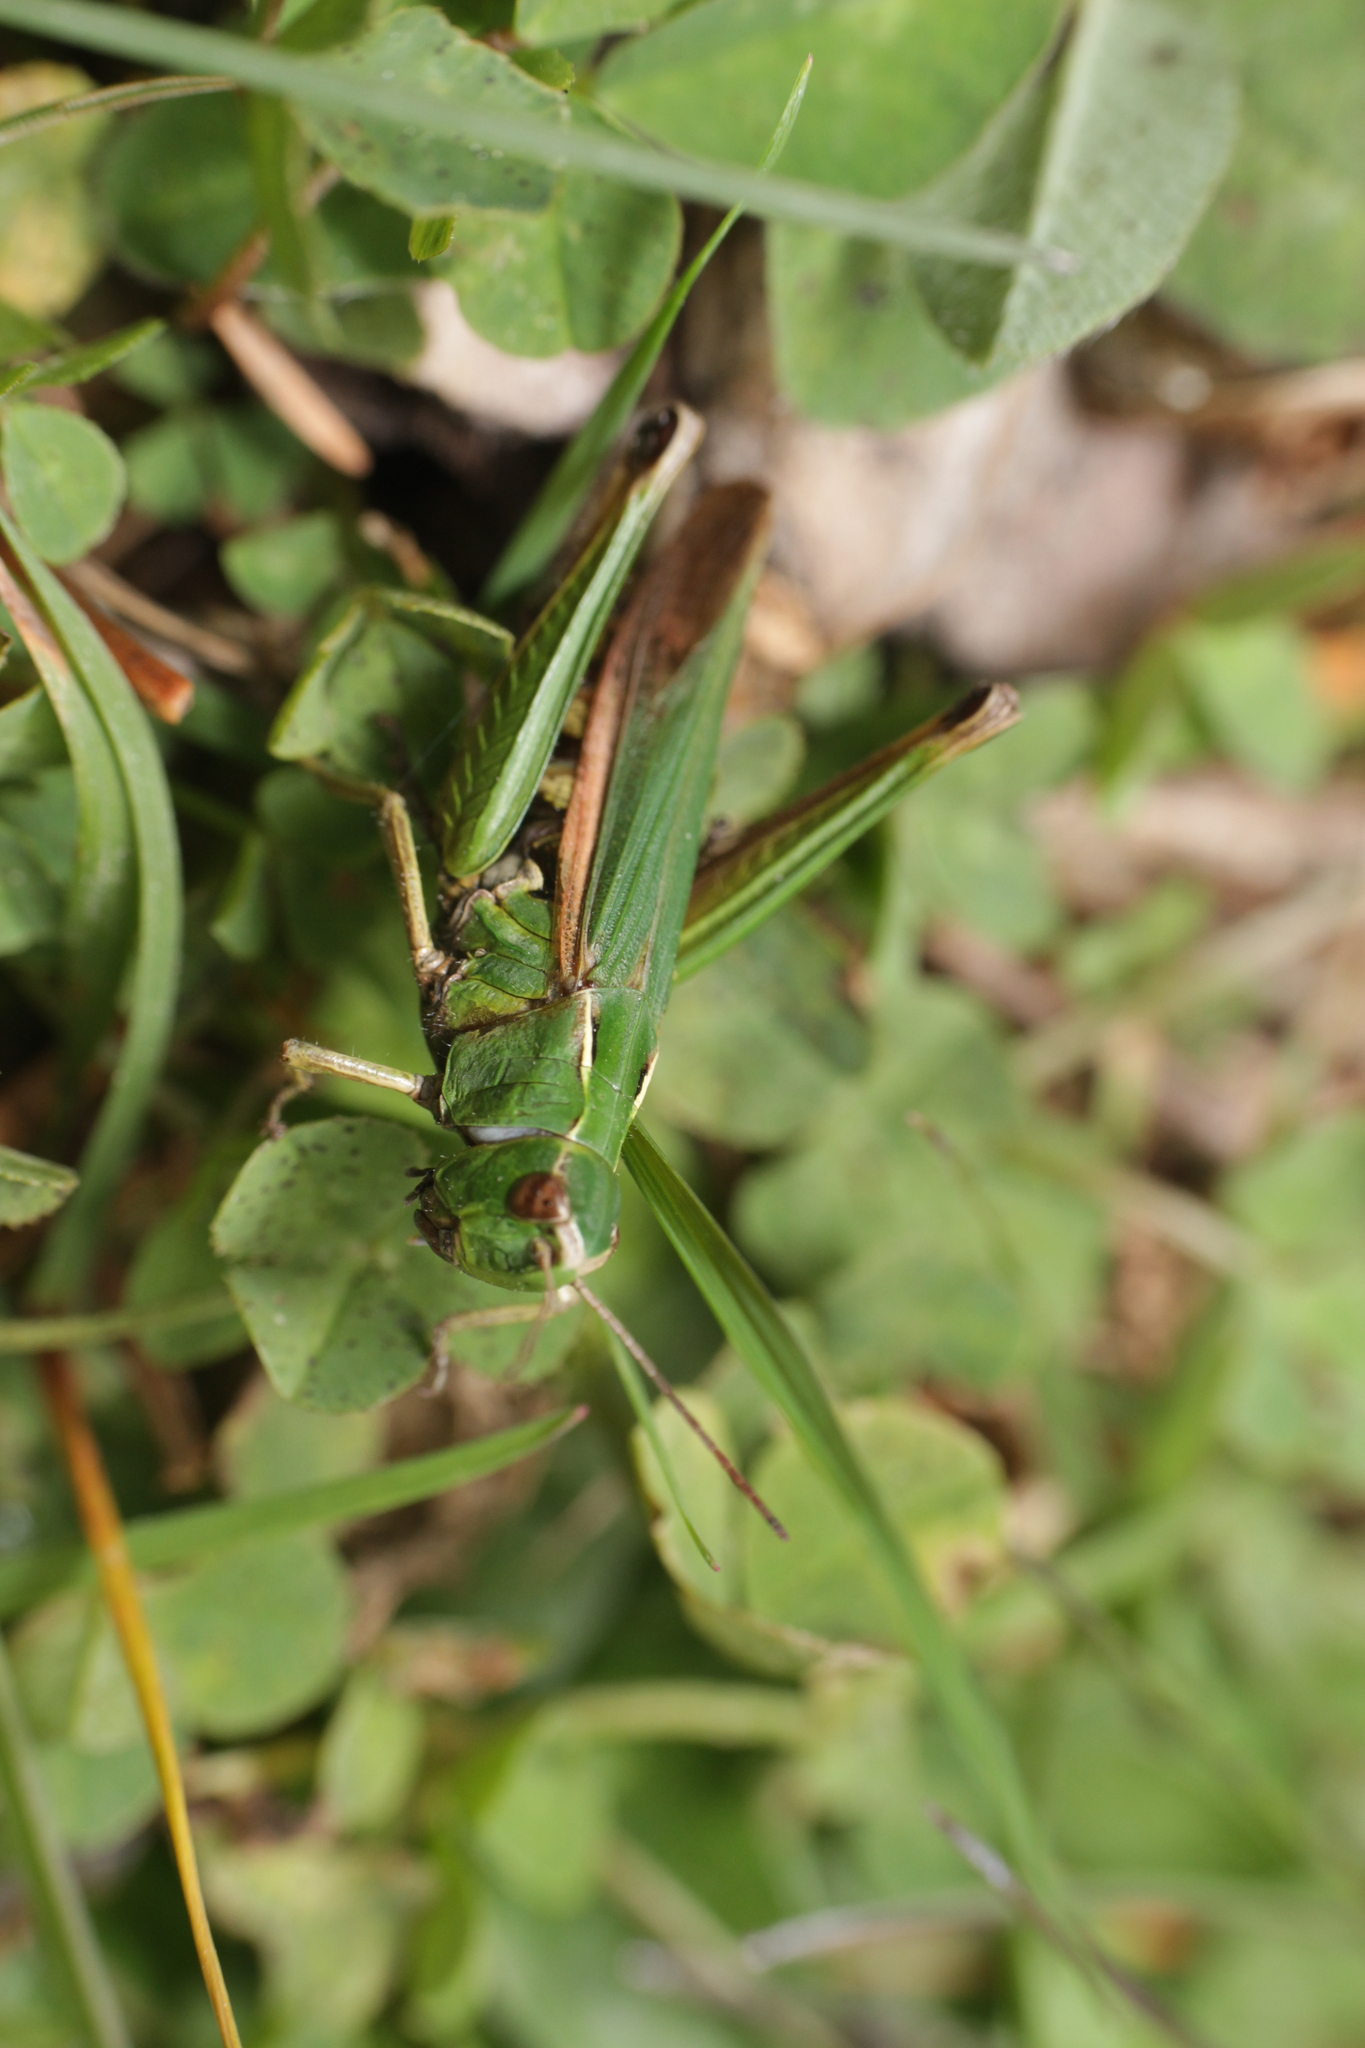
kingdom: Animalia
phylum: Arthropoda
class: Insecta
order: Orthoptera
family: Acrididae
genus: Omocestus
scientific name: Omocestus viridulus
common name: Common green grasshopper
